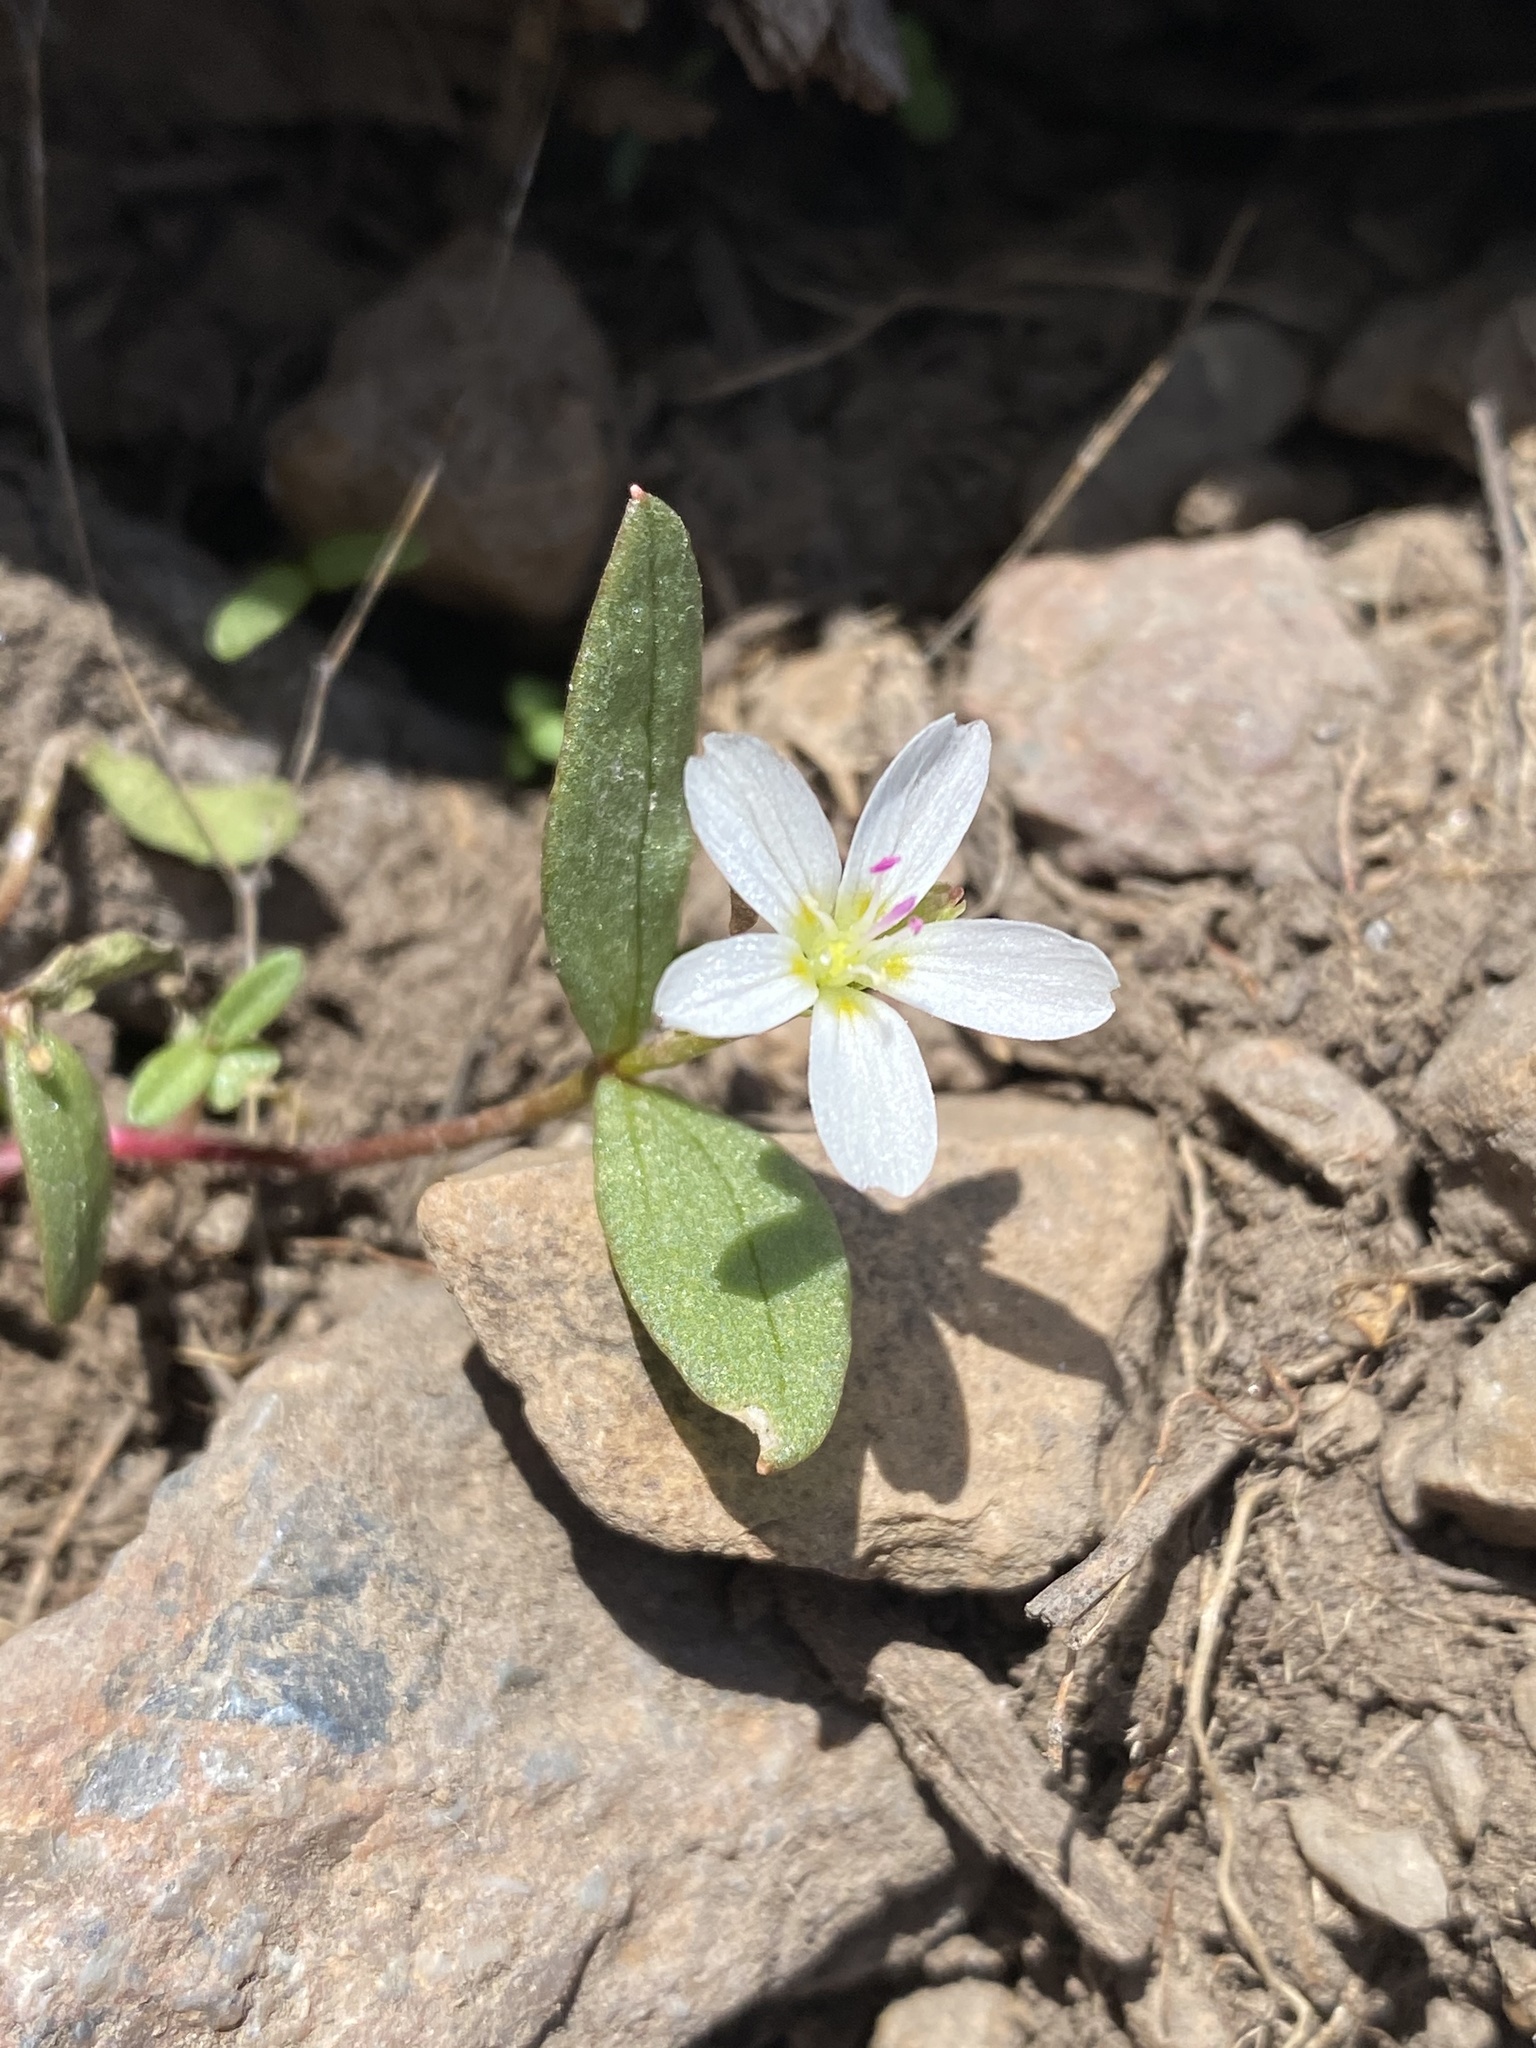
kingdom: Plantae
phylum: Tracheophyta
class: Magnoliopsida
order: Caryophyllales
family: Montiaceae
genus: Claytonia
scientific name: Claytonia lanceolata
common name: Western spring-beauty
